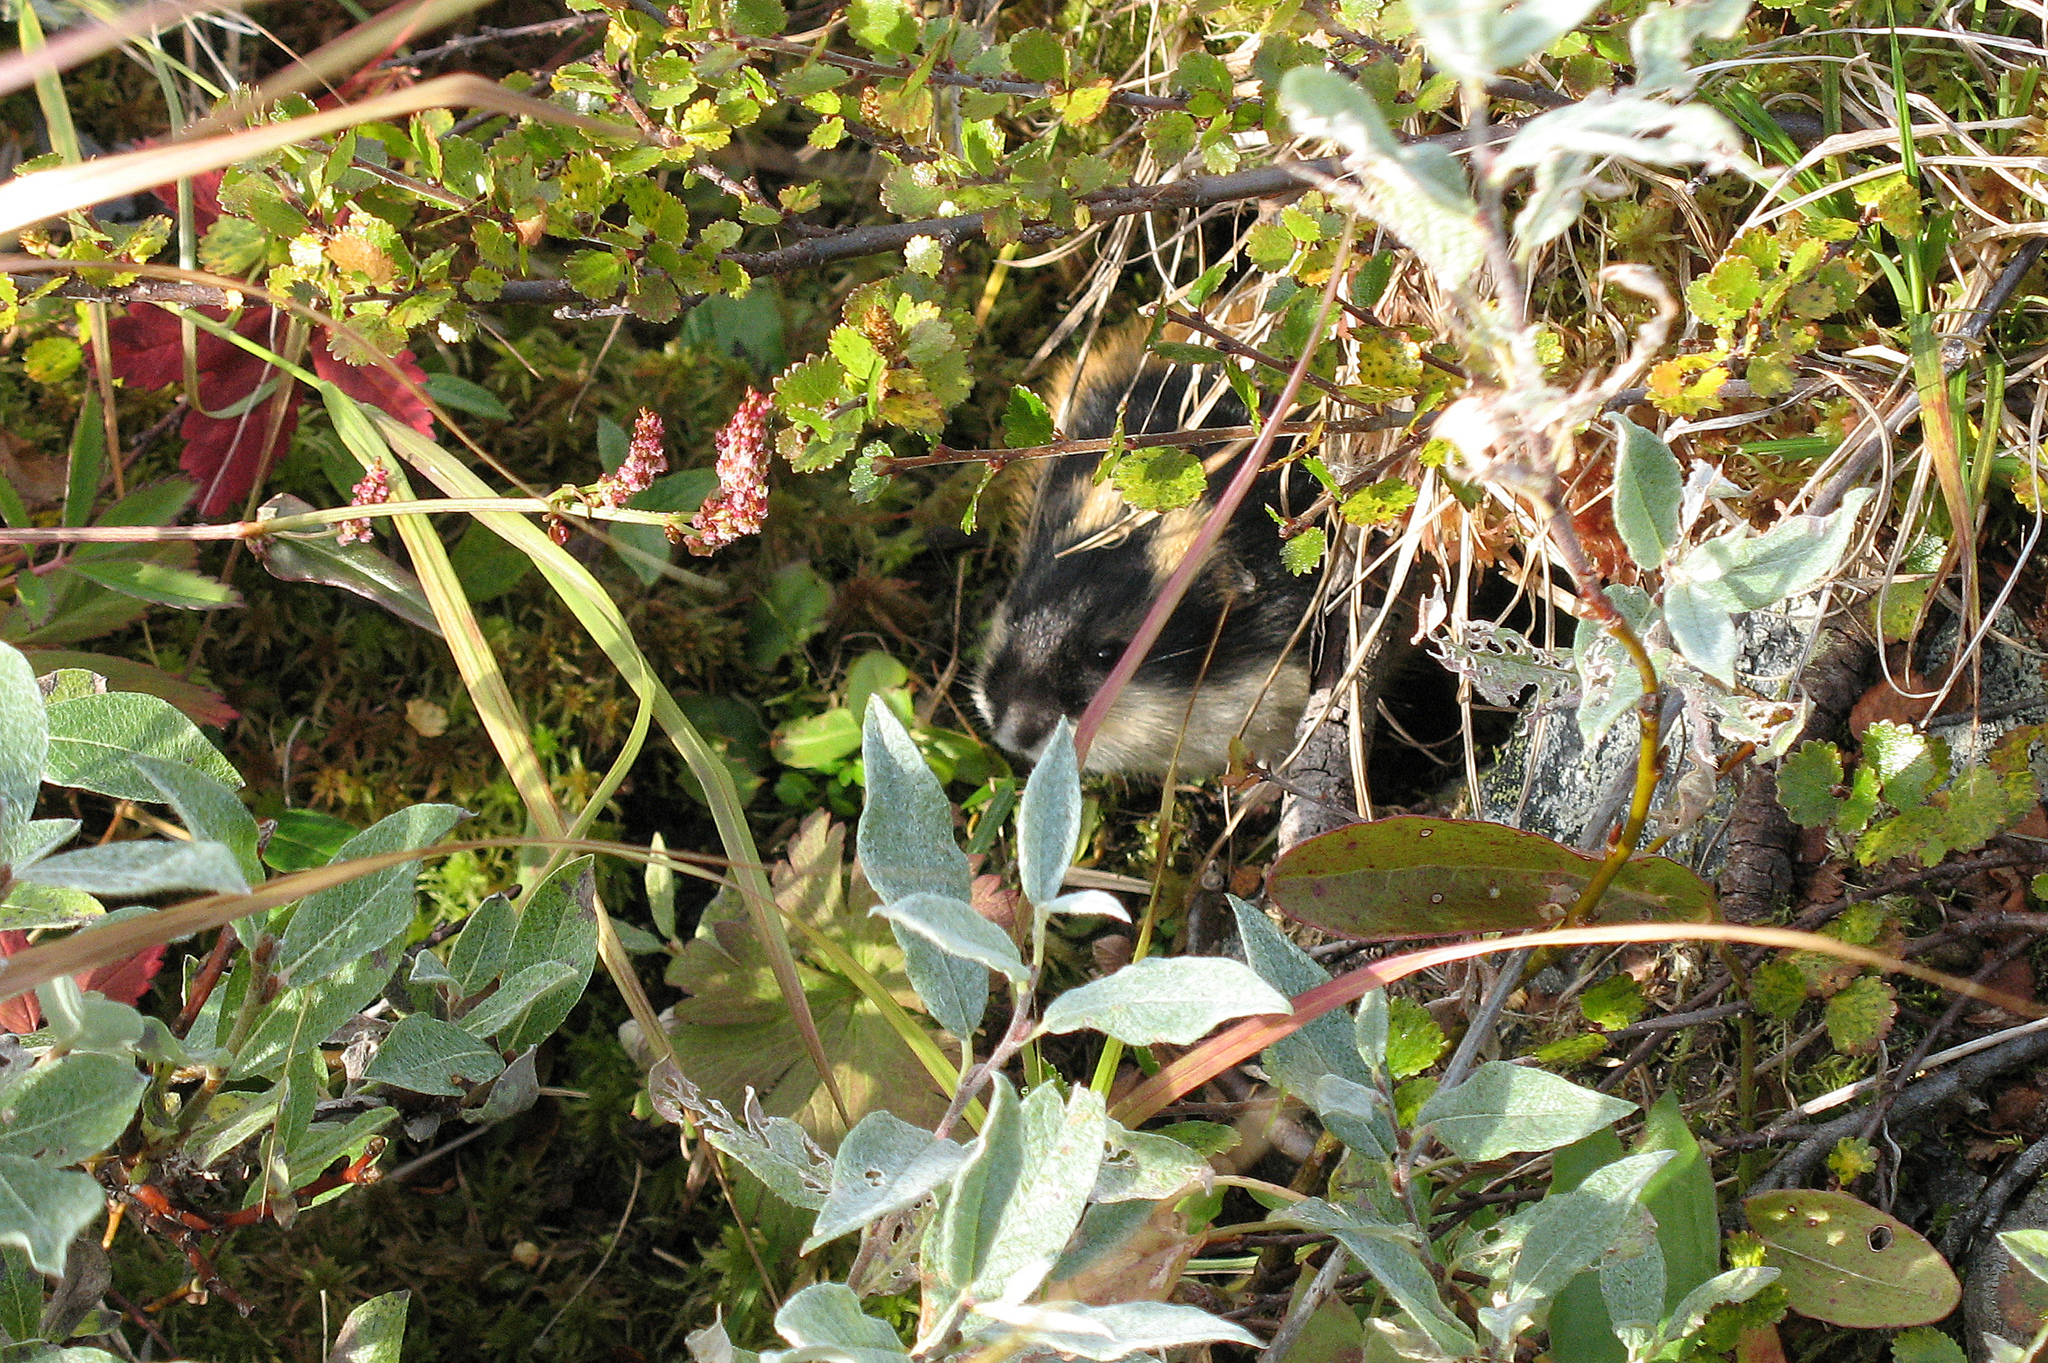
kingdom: Animalia
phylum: Chordata
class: Mammalia
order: Rodentia
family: Cricetidae
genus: Lemmus
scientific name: Lemmus lemmus
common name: Norway lemming
